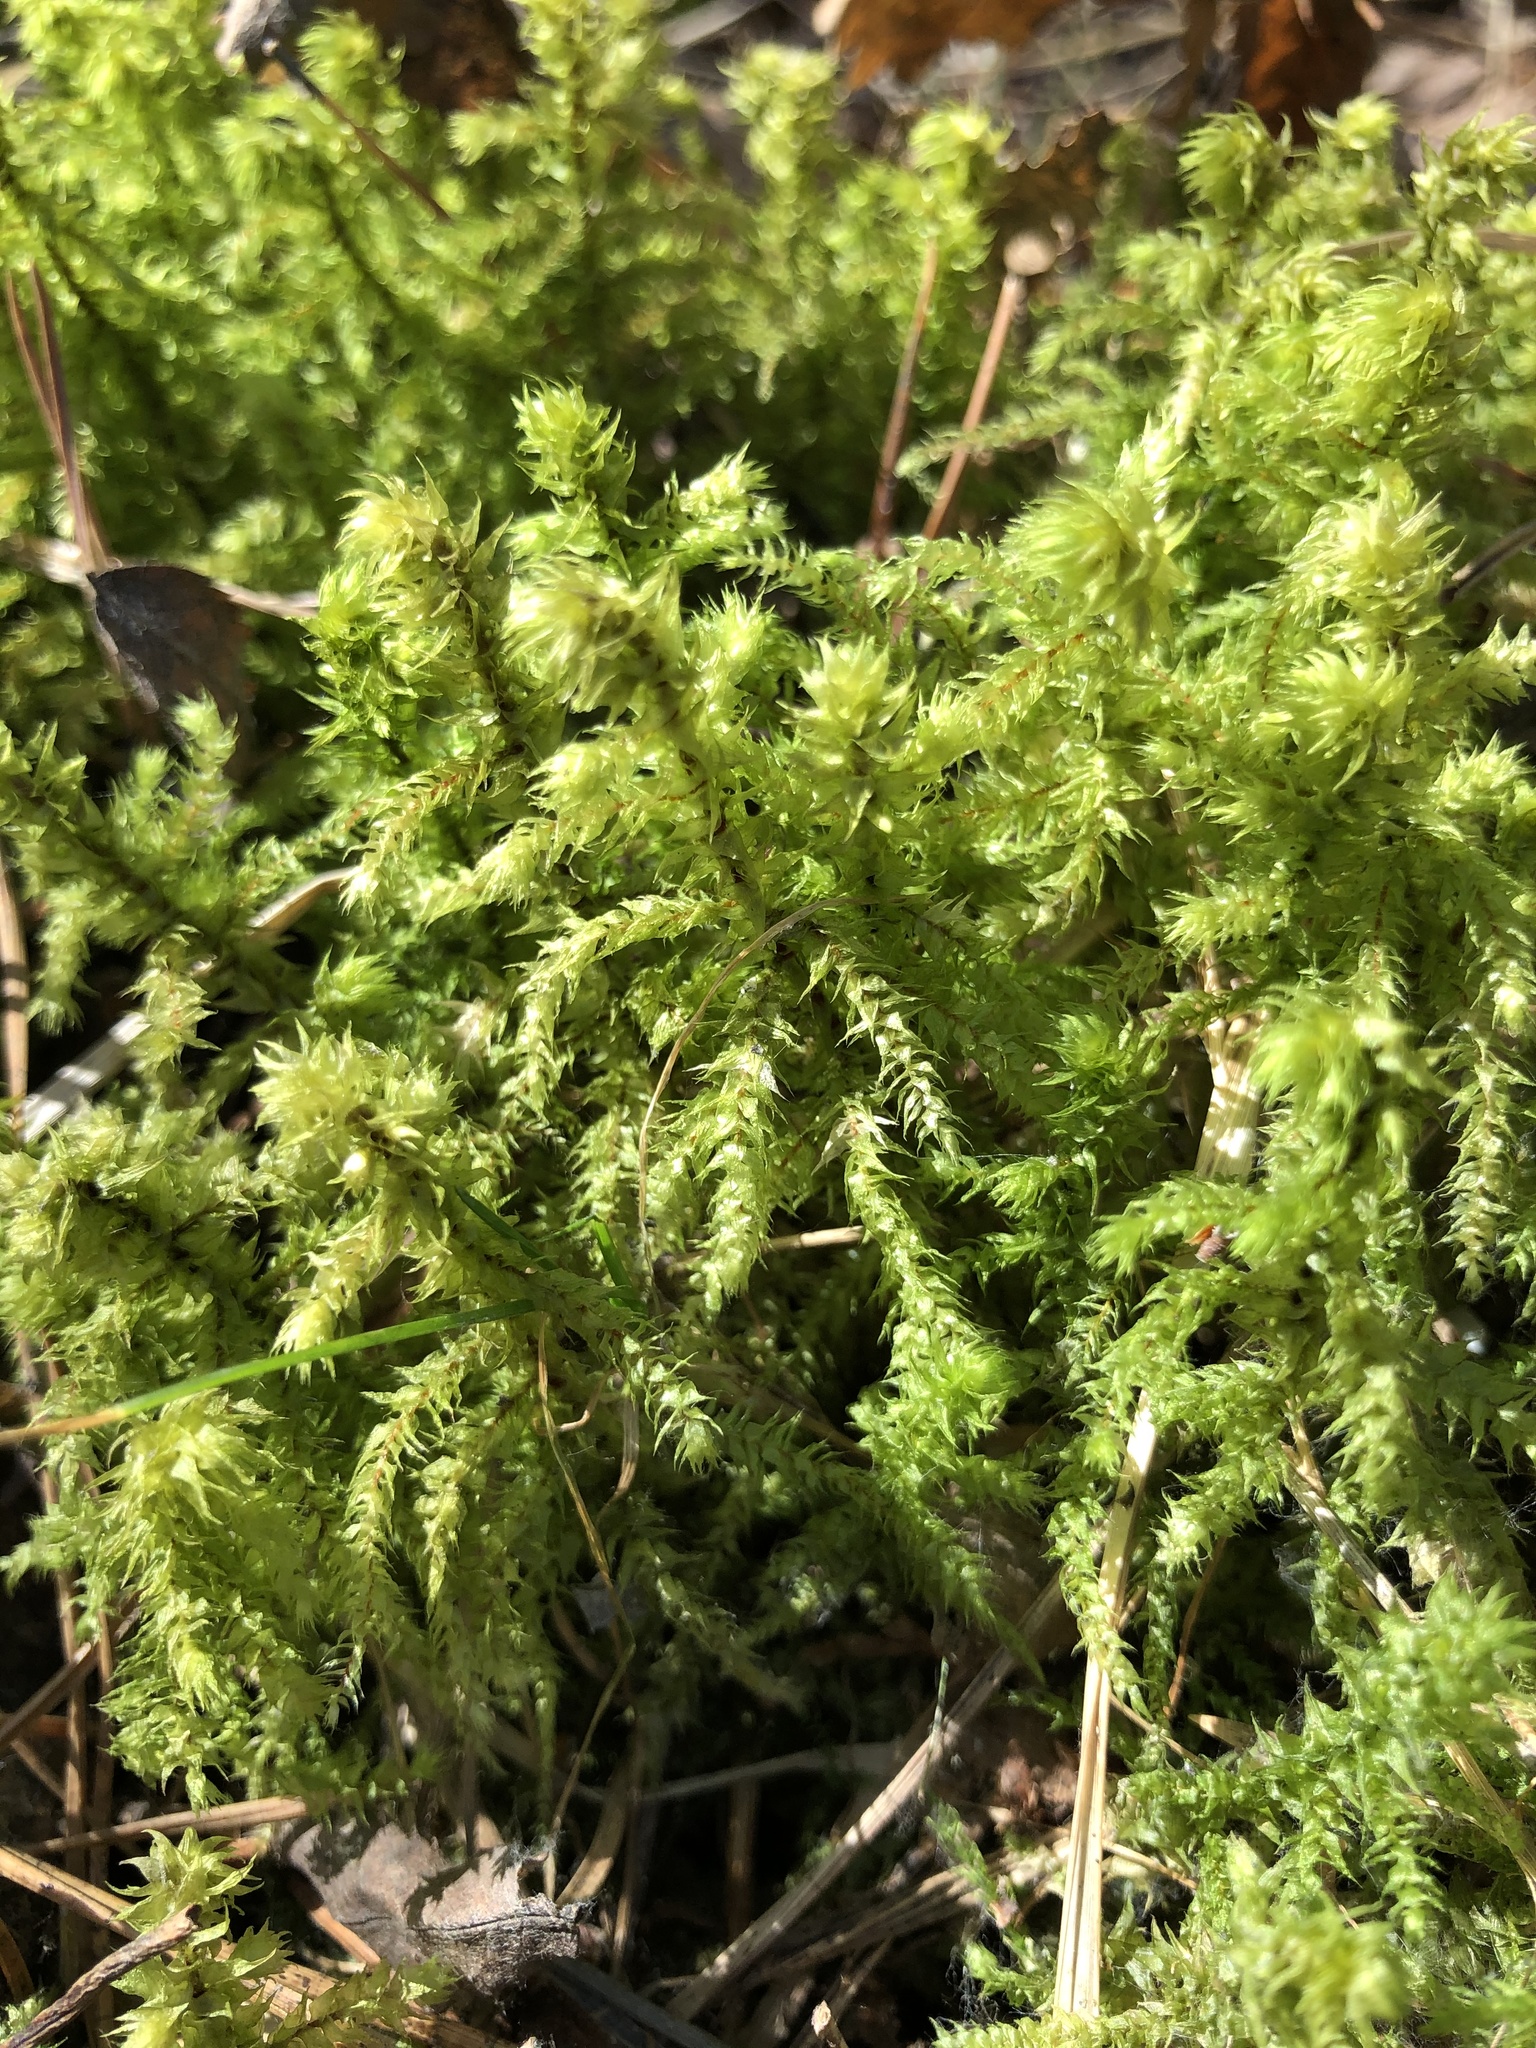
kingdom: Plantae
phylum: Bryophyta
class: Bryopsida
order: Hypnales
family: Hylocomiaceae
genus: Hylocomiadelphus
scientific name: Hylocomiadelphus triquetrus
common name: Rough goose neck moss
